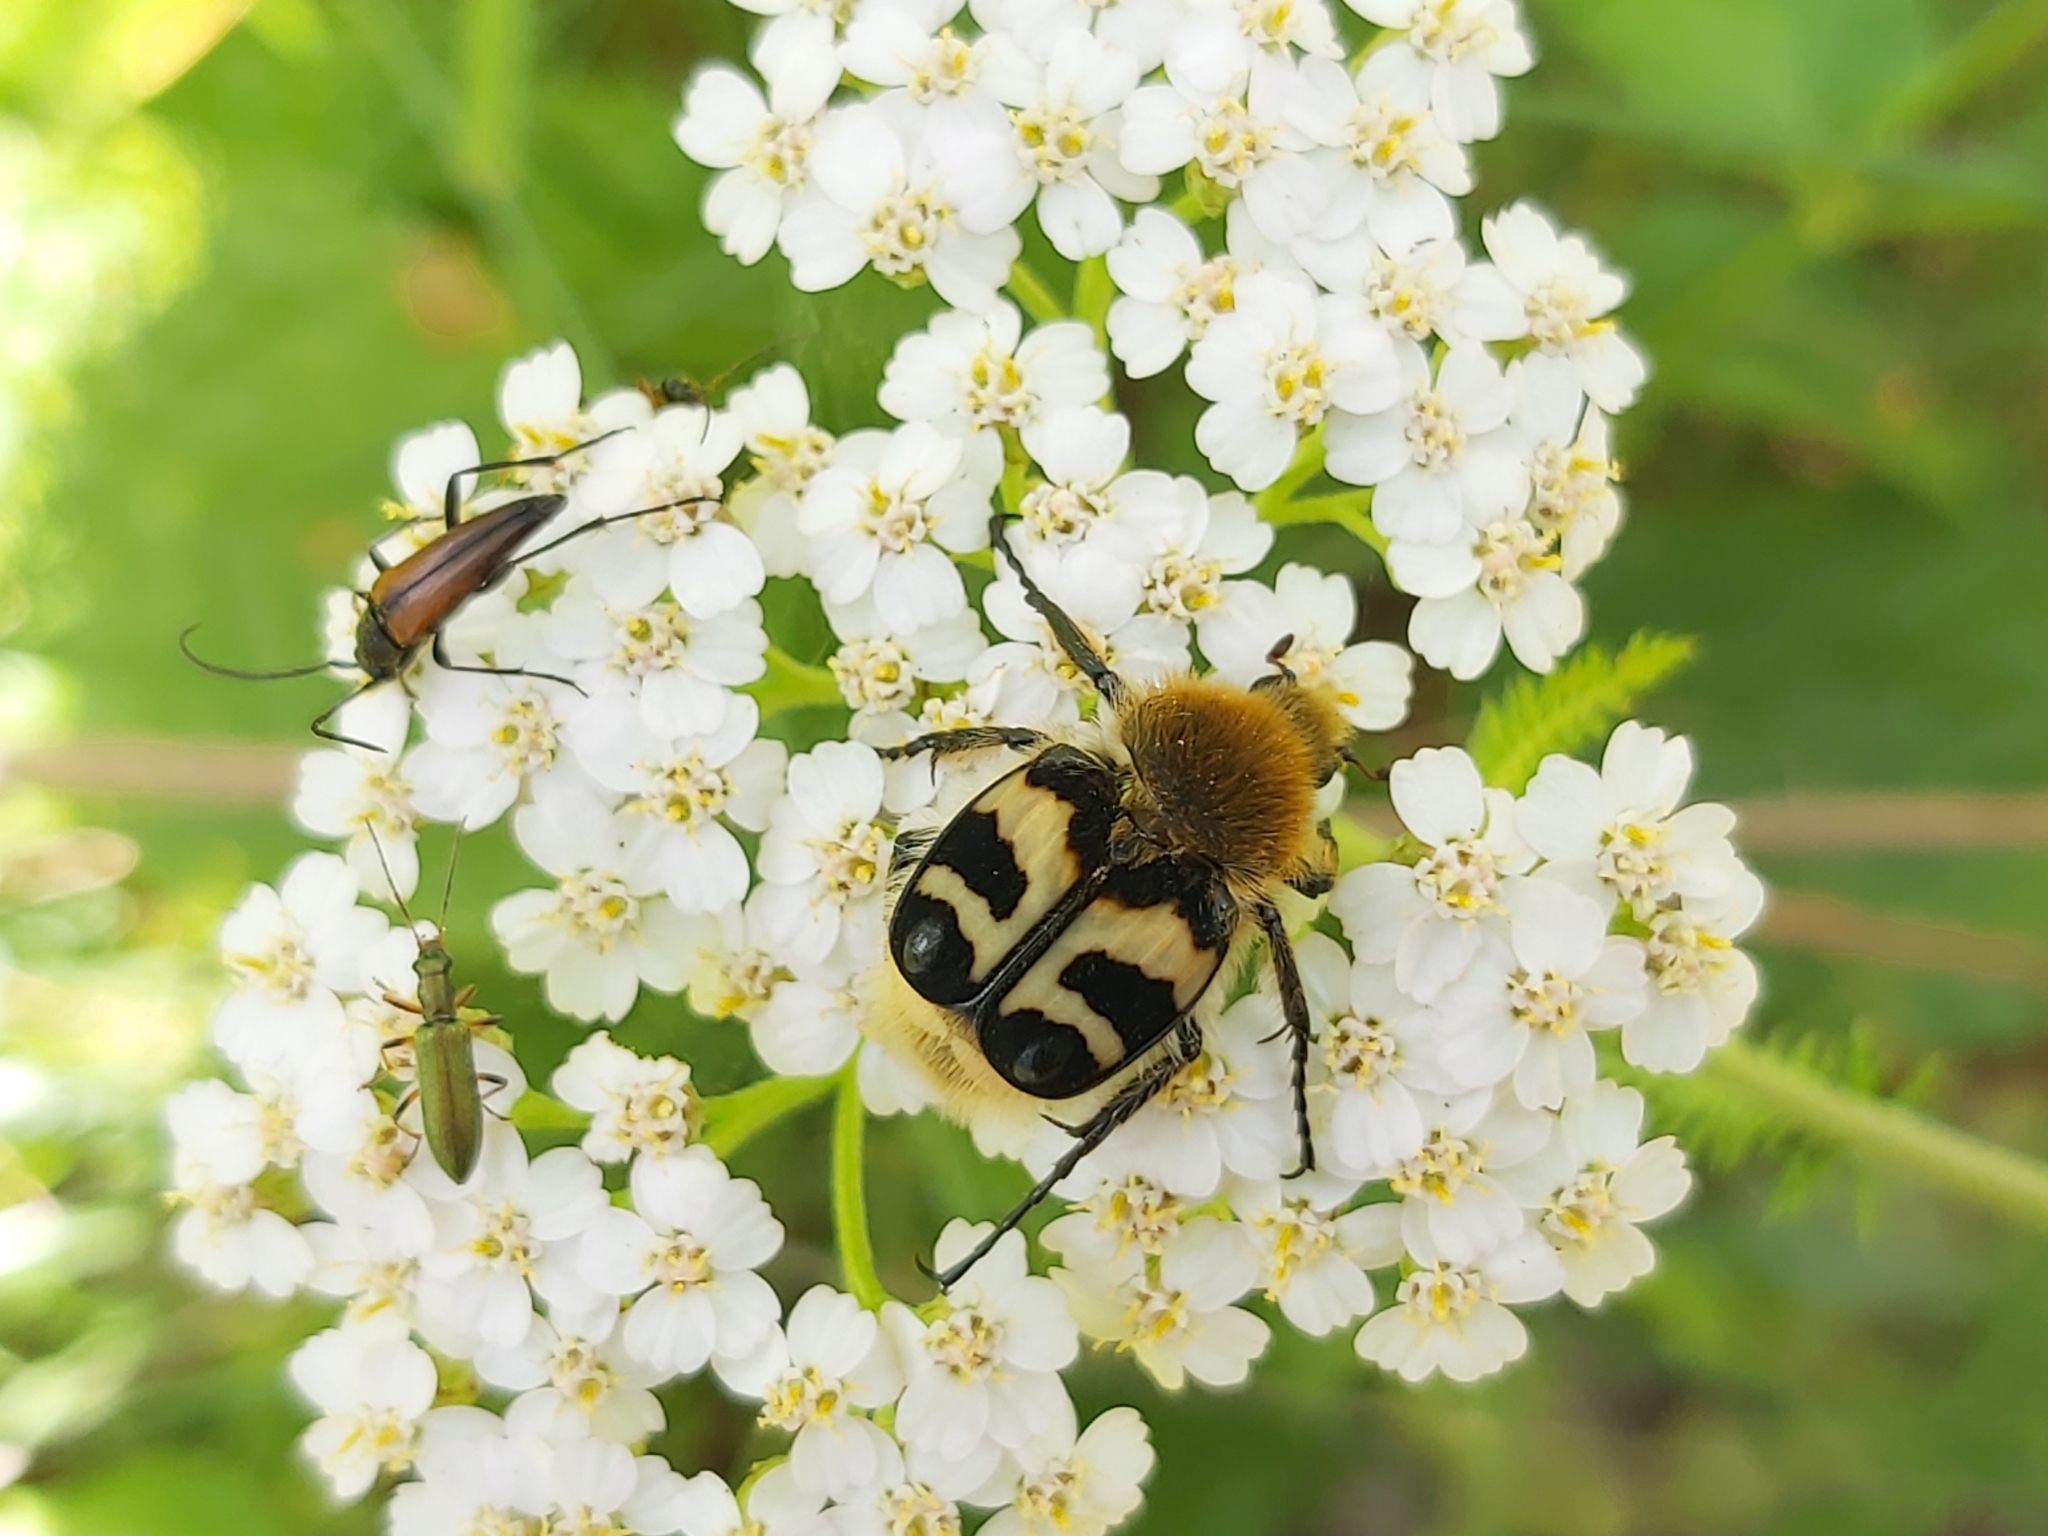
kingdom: Animalia
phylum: Arthropoda
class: Insecta
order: Coleoptera
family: Scarabaeidae
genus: Trichius
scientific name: Trichius fasciatus
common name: Bee beetle
